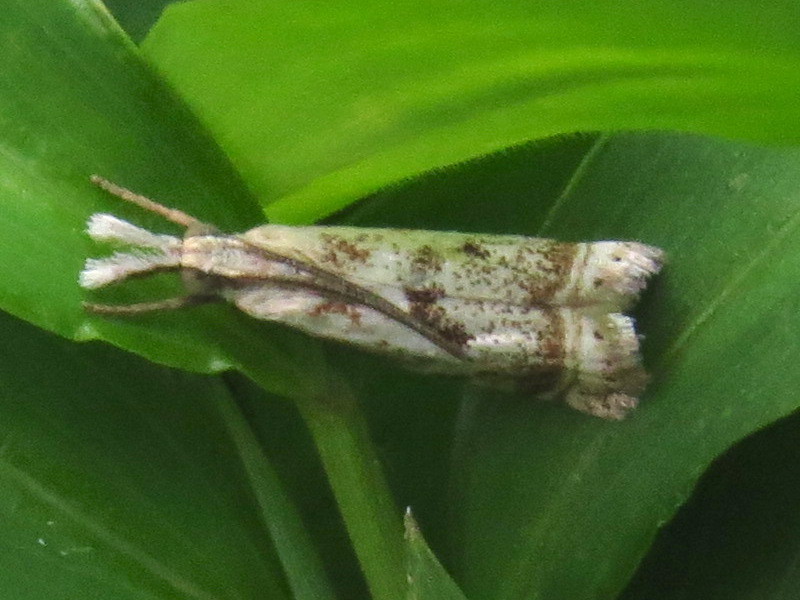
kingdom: Animalia
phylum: Arthropoda
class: Insecta
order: Lepidoptera
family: Crambidae
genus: Microcrambus
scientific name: Microcrambus elegans
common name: Elegant grass-veneer
